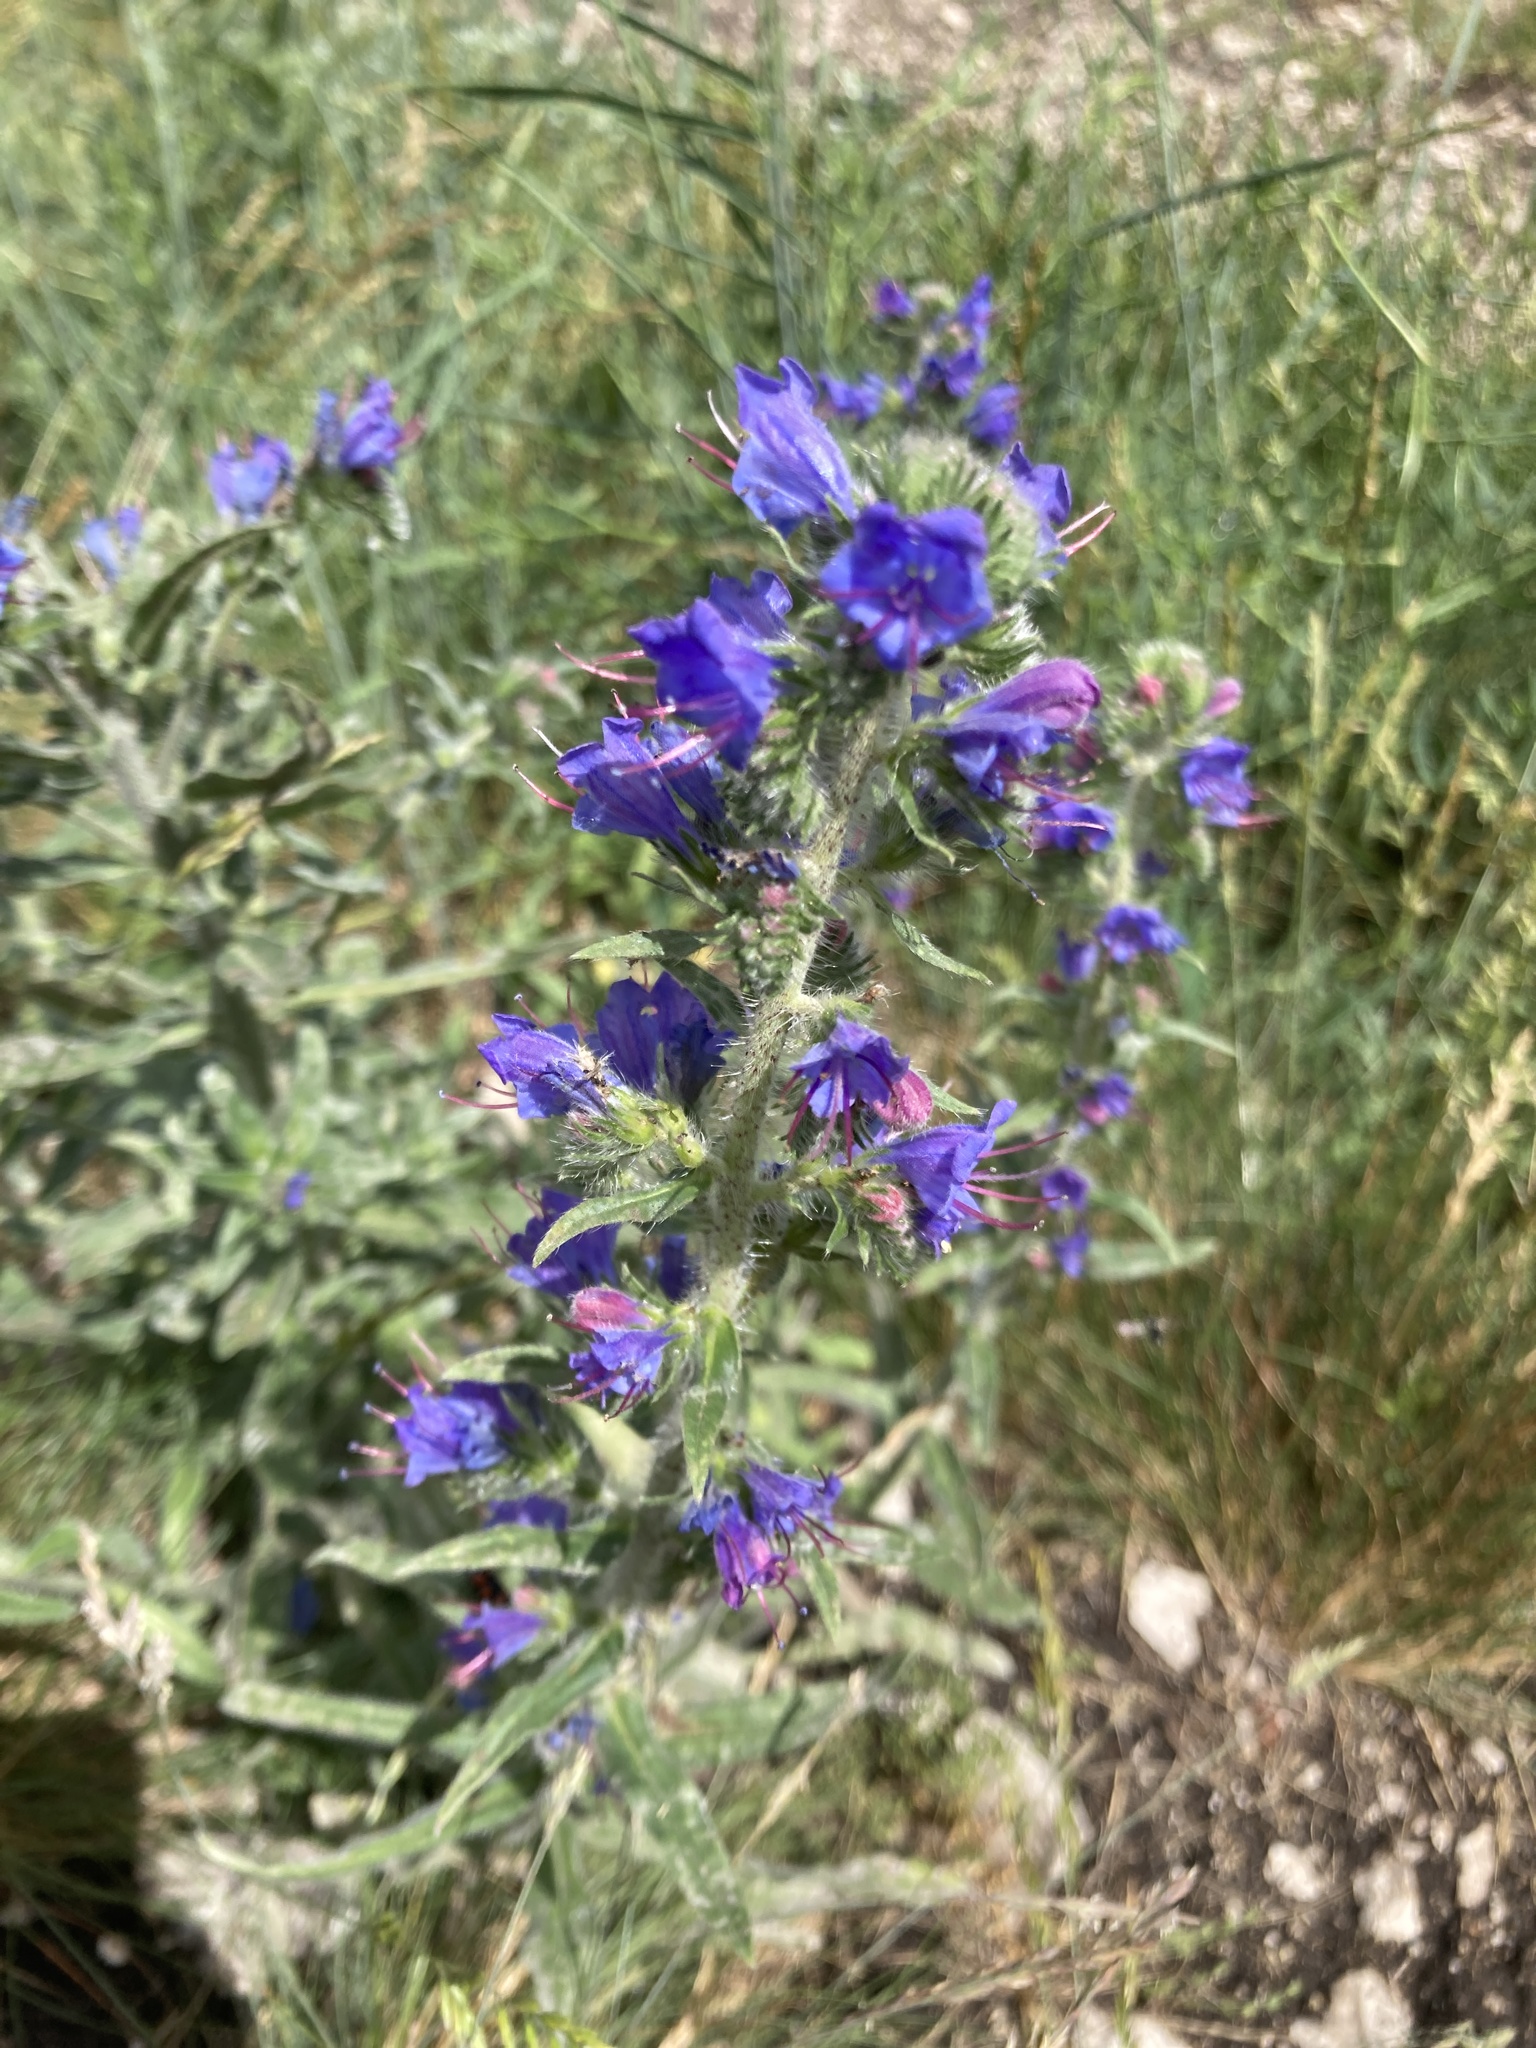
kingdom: Plantae
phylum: Tracheophyta
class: Magnoliopsida
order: Boraginales
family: Boraginaceae
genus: Echium
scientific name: Echium vulgare
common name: Common viper's bugloss
